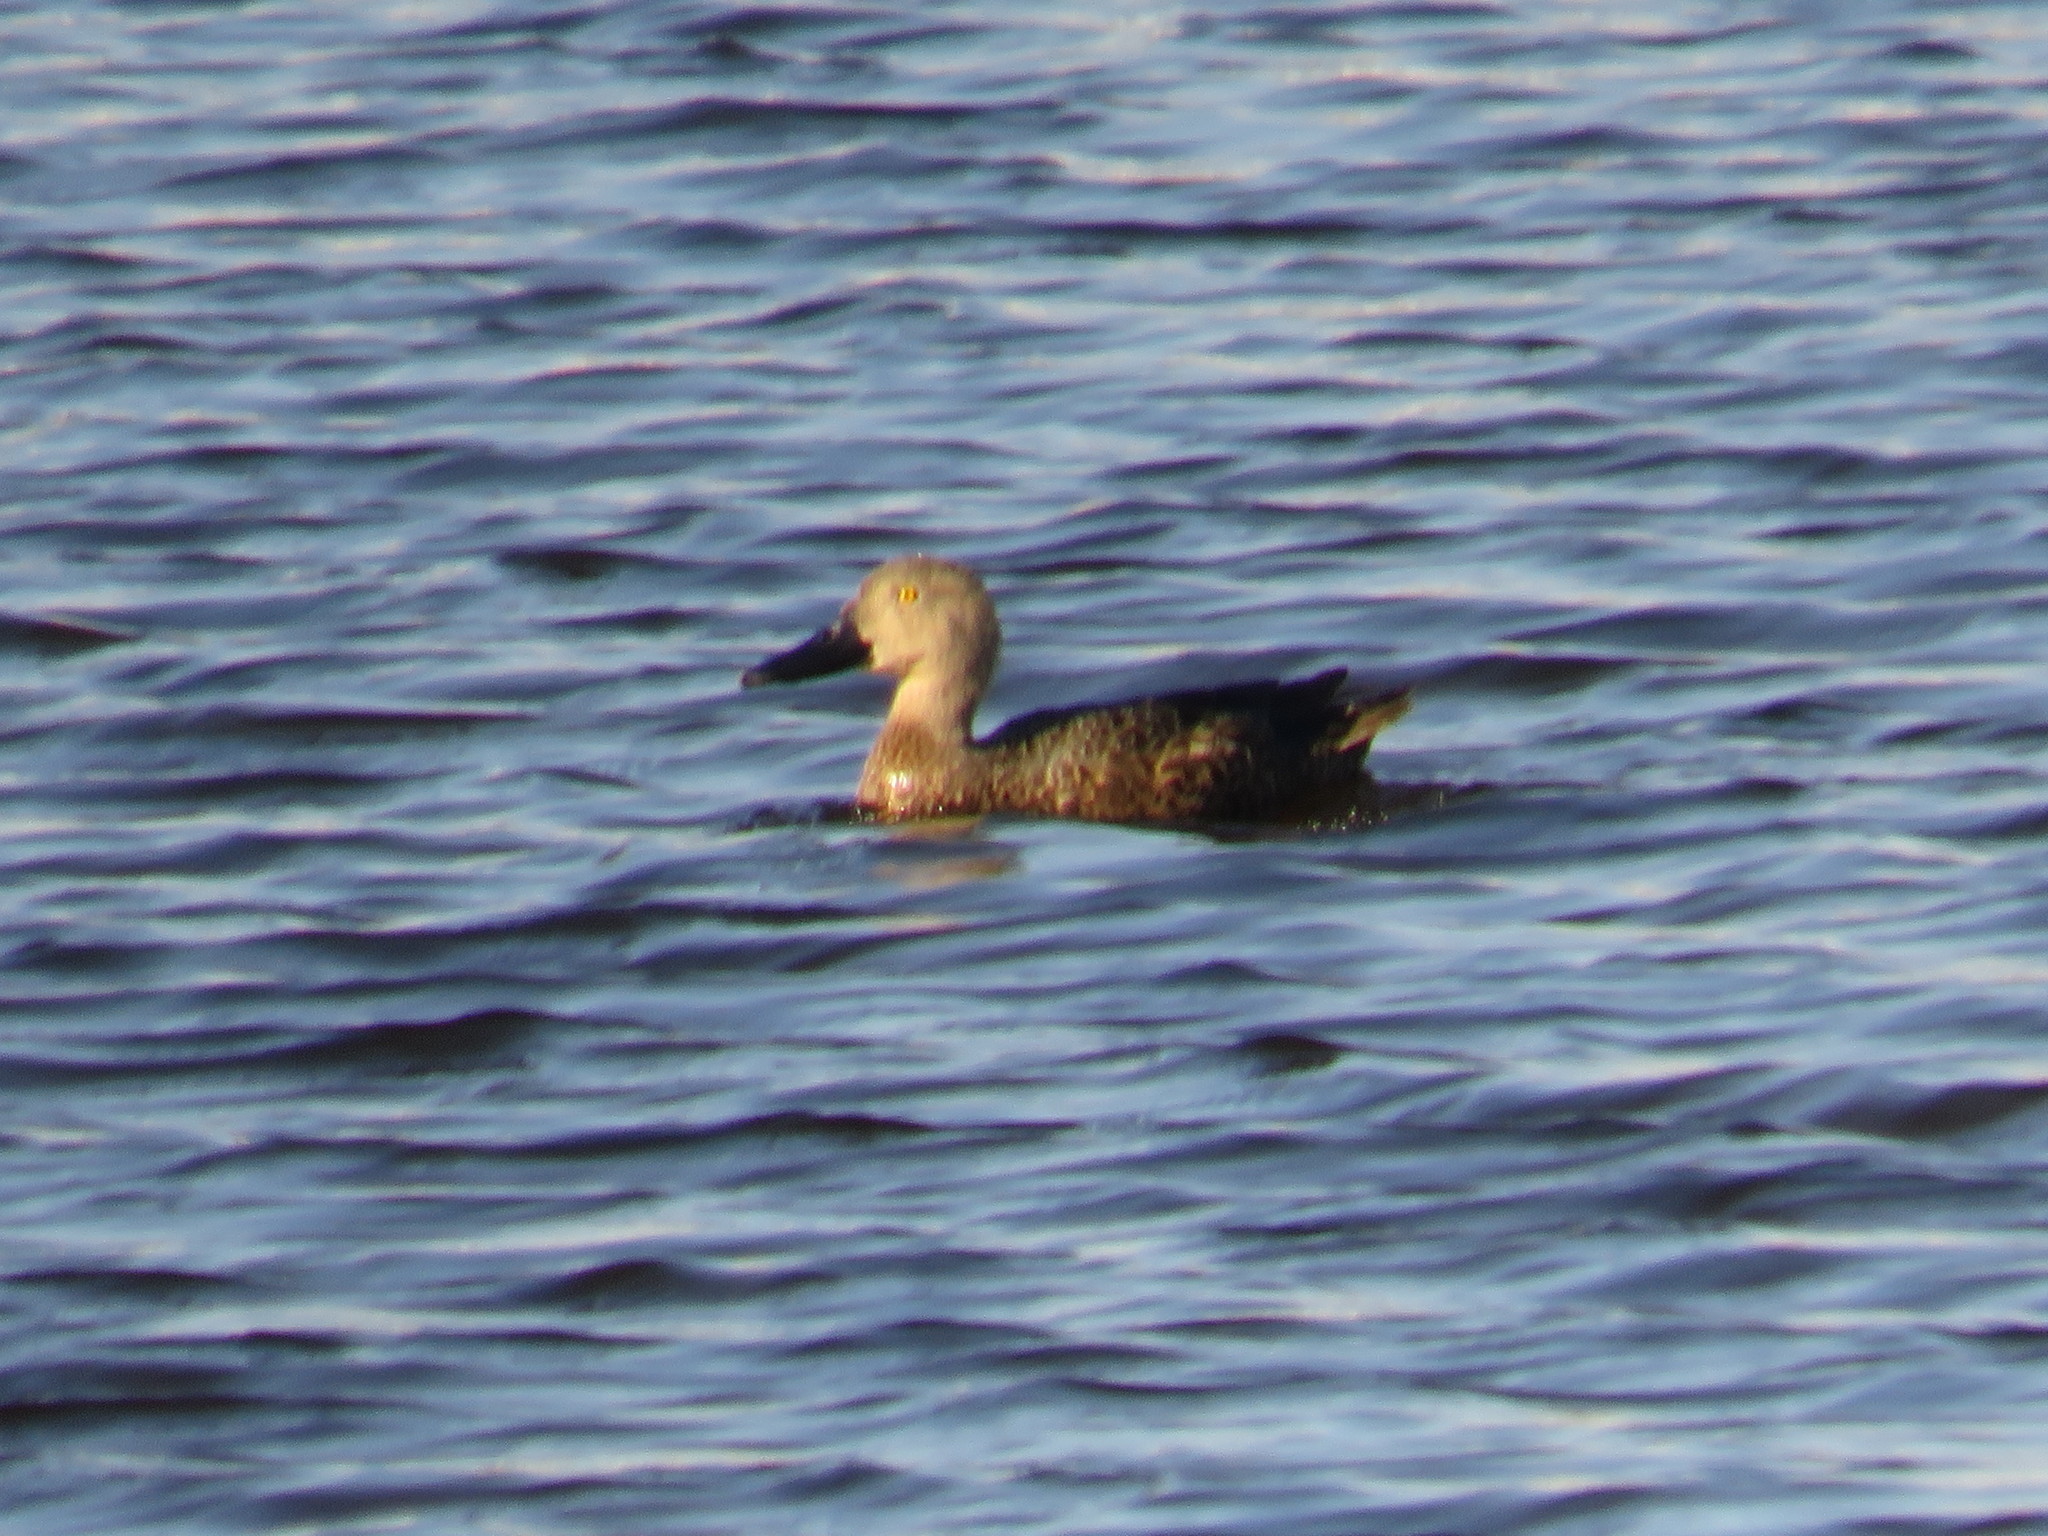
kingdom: Animalia
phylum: Chordata
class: Aves
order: Anseriformes
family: Anatidae
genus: Spatula
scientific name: Spatula smithii
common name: Cape shoveler
